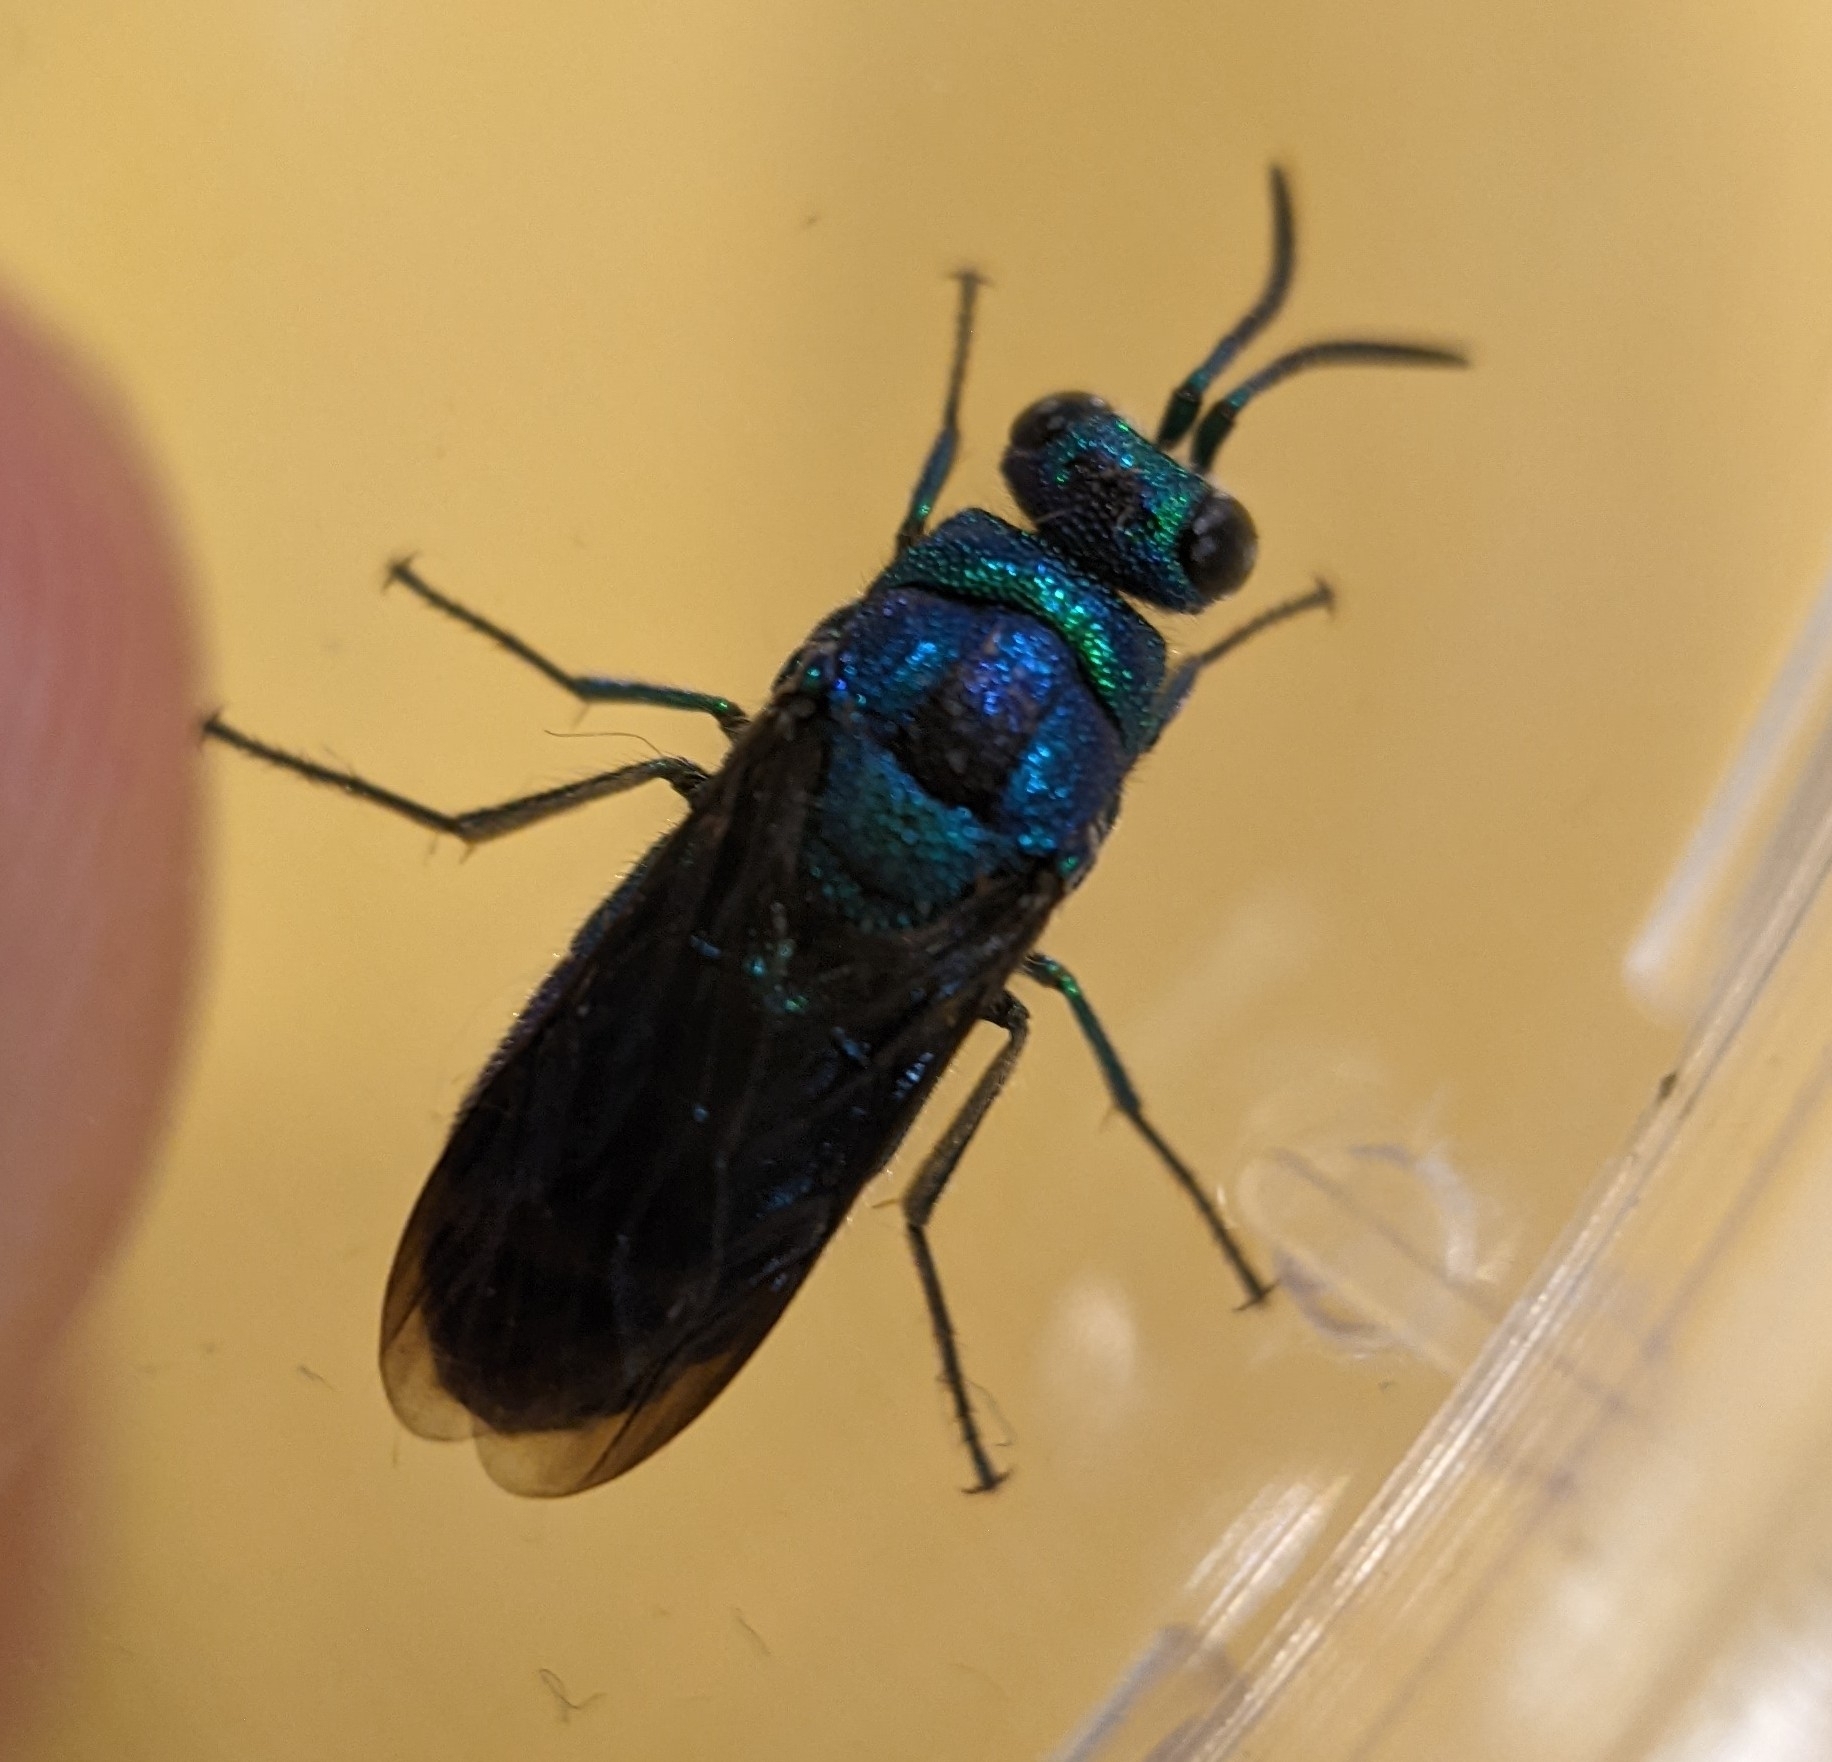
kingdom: Animalia
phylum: Arthropoda
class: Insecta
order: Hymenoptera
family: Chrysididae
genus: Chrysis
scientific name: Chrysis angolensis
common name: Cuckoo wasp
